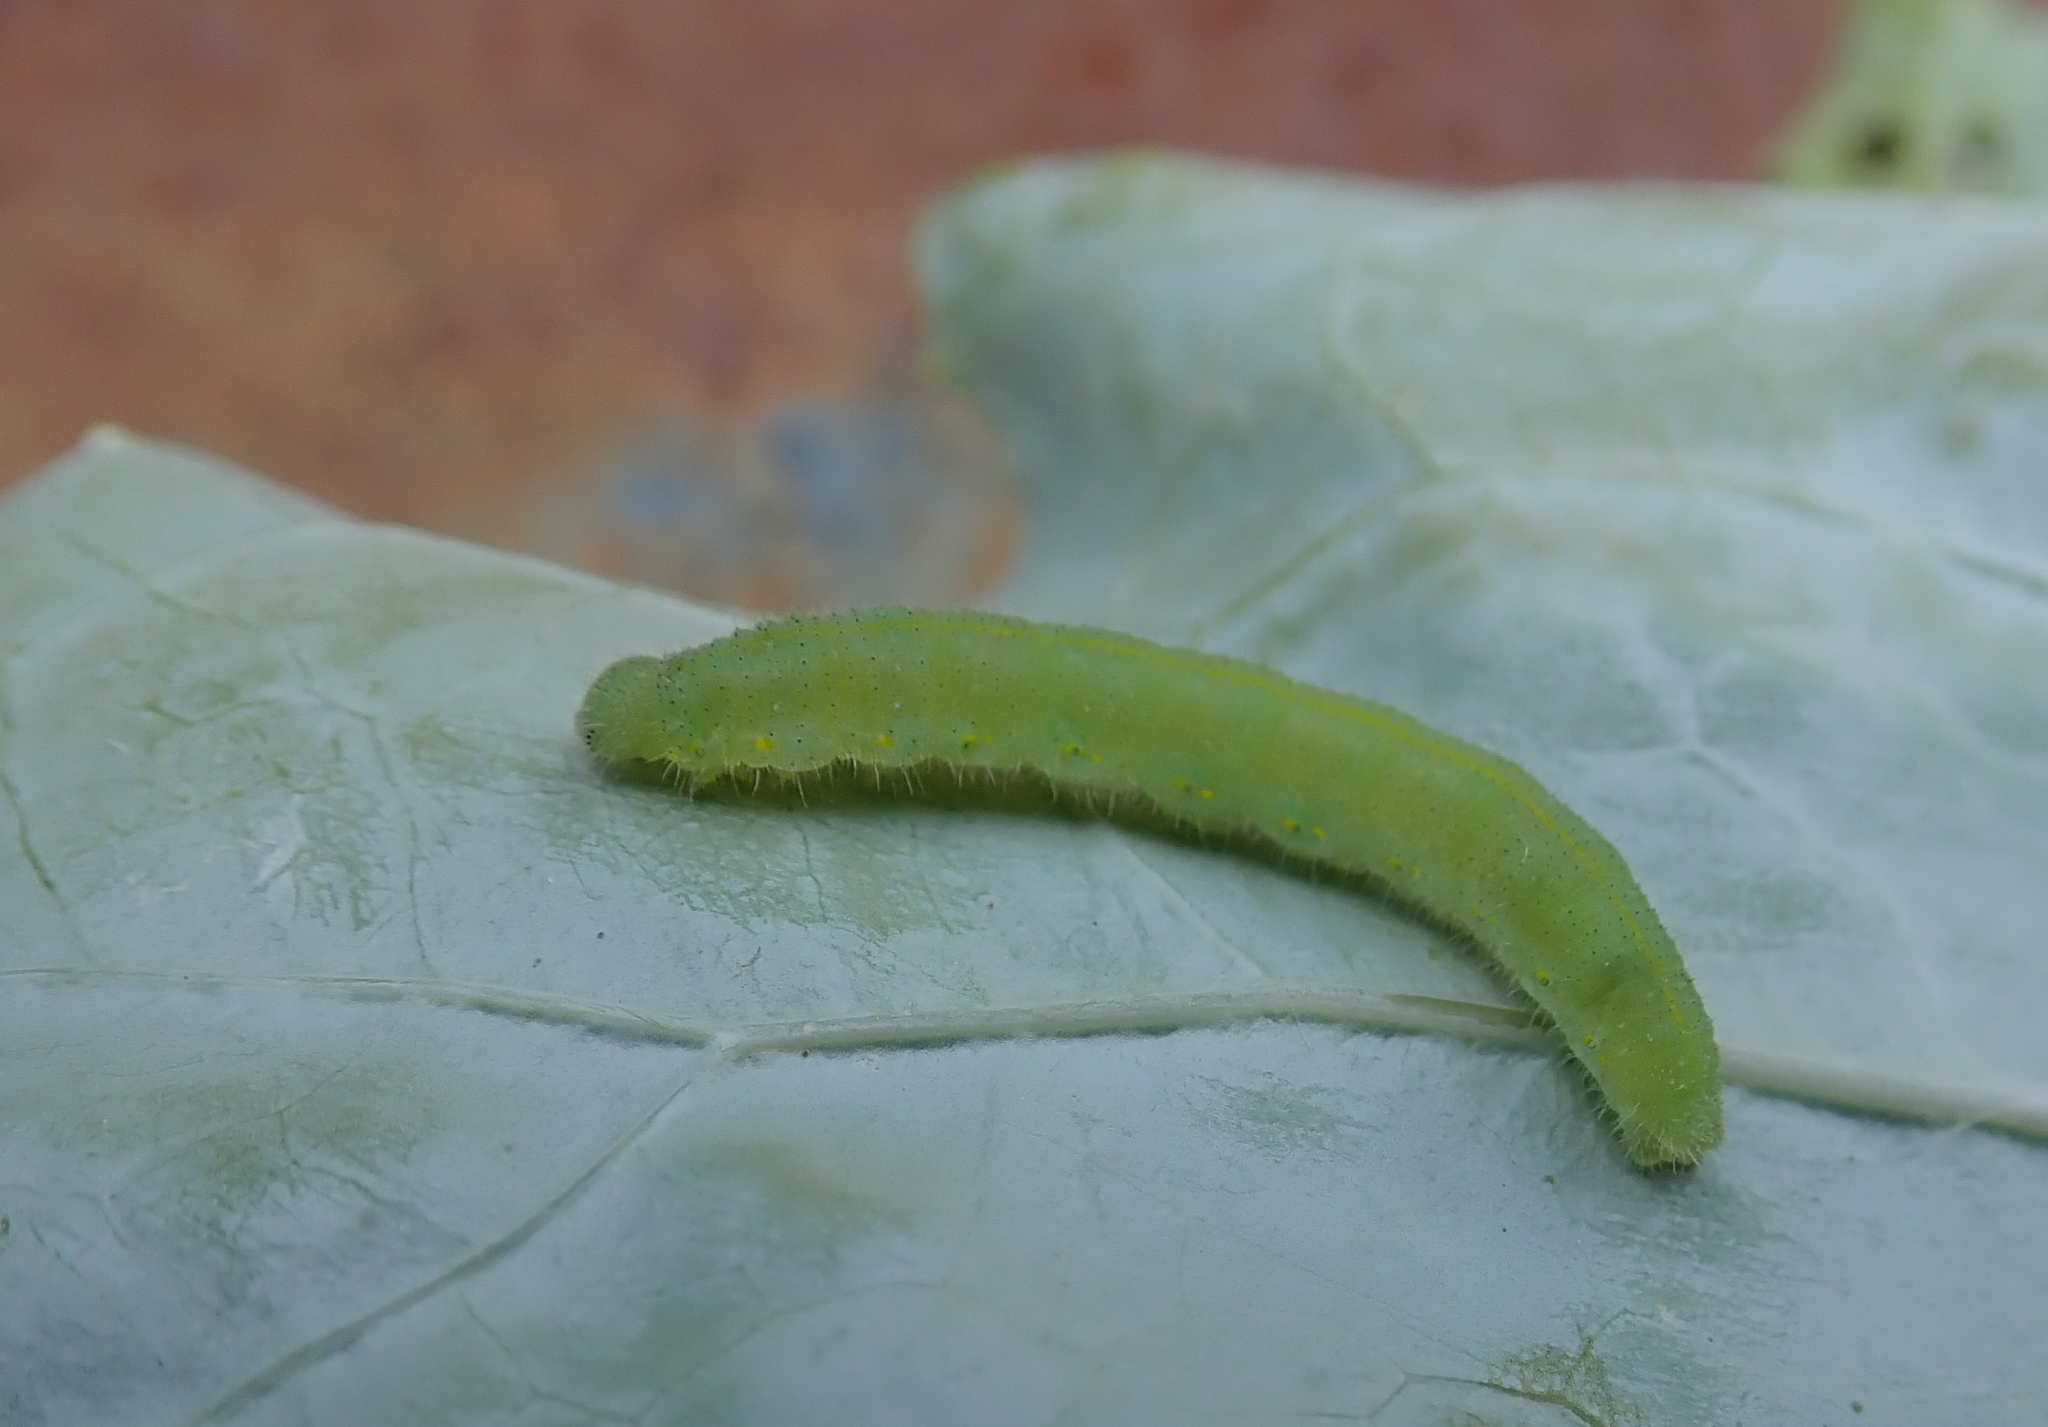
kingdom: Animalia
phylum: Arthropoda
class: Insecta
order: Lepidoptera
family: Pieridae
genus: Pieris
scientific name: Pieris rapae
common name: Small white
